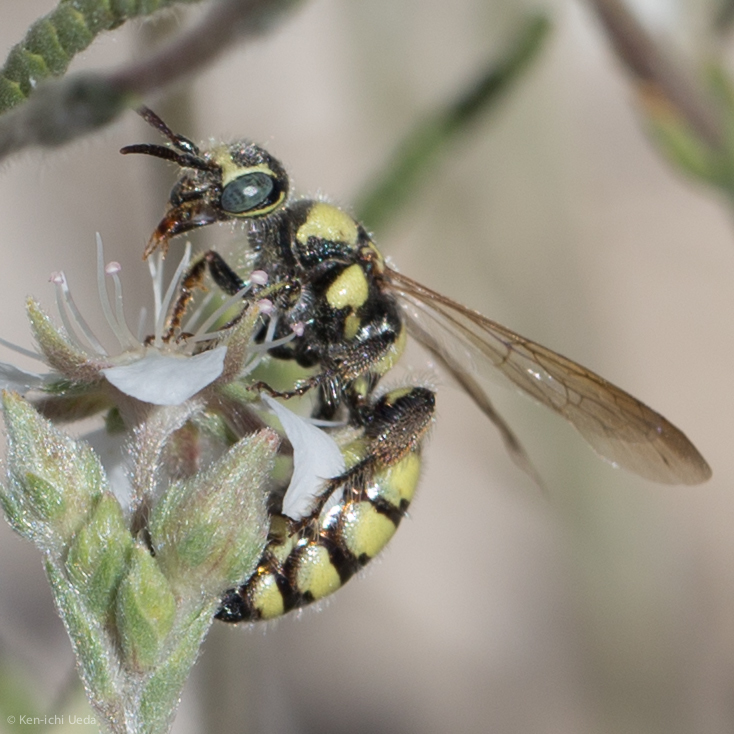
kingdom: Animalia
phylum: Arthropoda
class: Insecta
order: Hymenoptera
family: Tiphiidae
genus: Myzinum
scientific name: Myzinum frontalis
